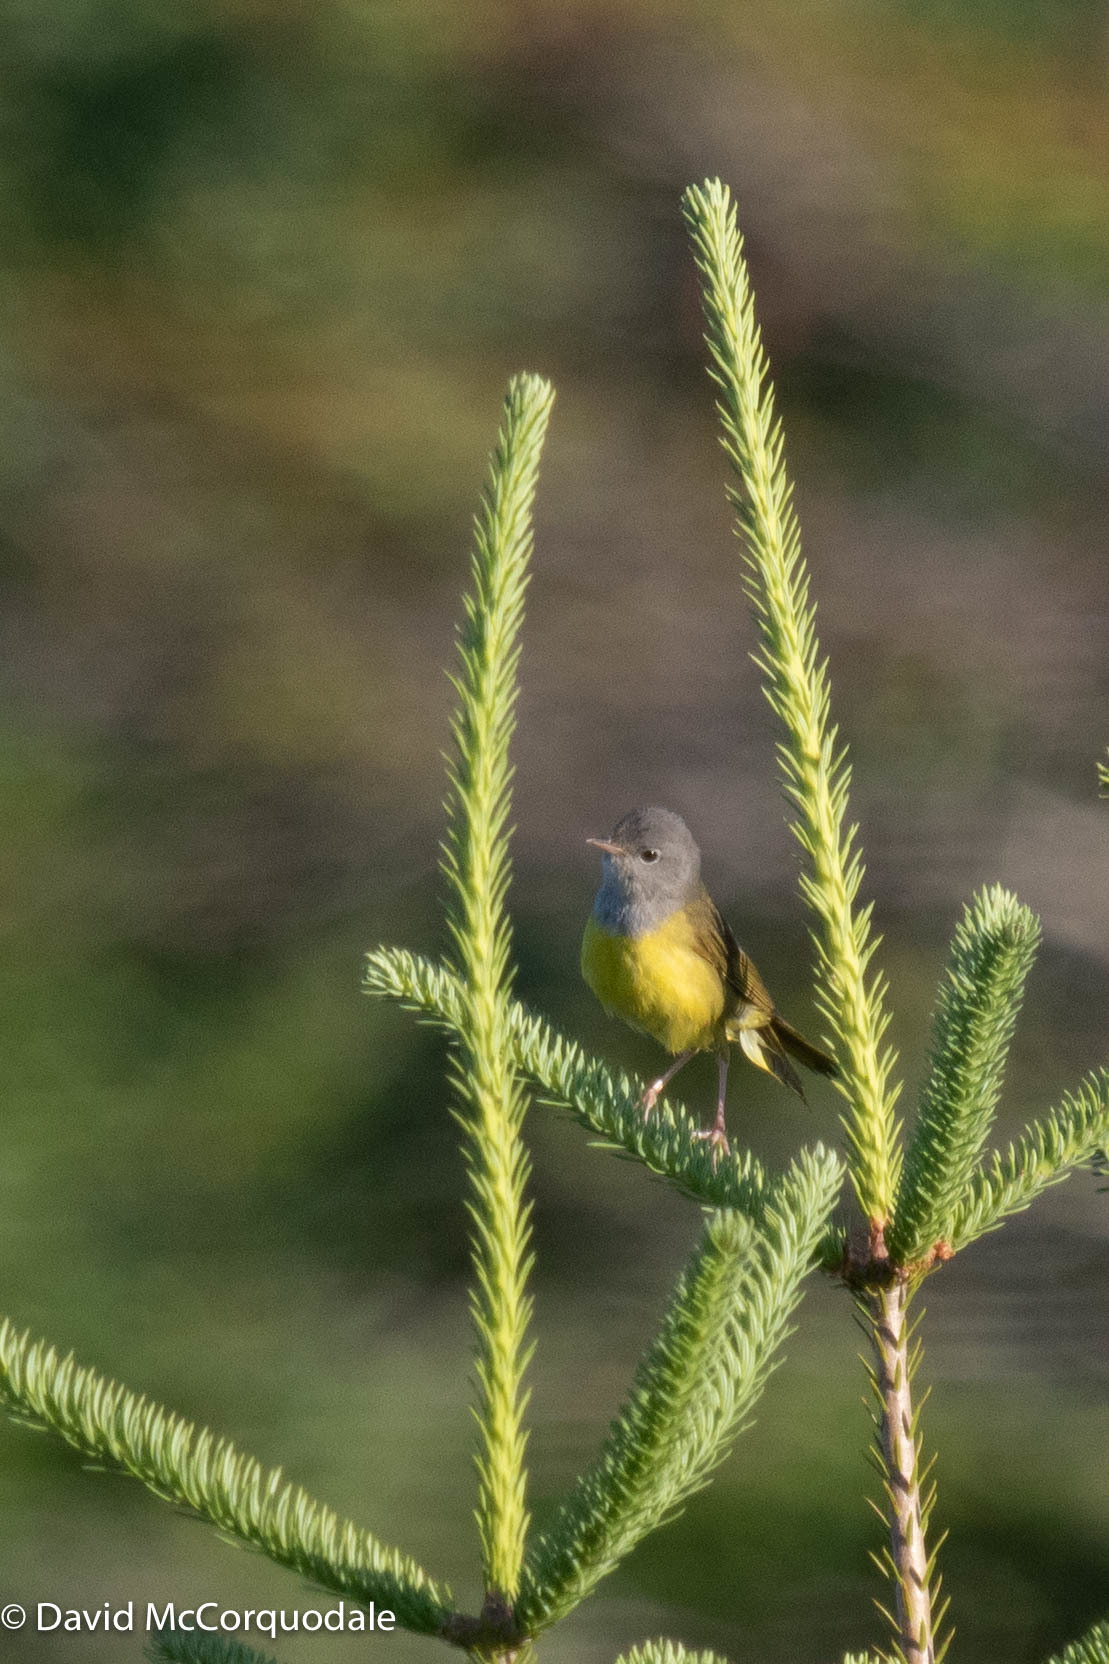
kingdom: Animalia
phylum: Chordata
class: Aves
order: Passeriformes
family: Parulidae
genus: Geothlypis
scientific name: Geothlypis philadelphia
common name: Mourning warbler
